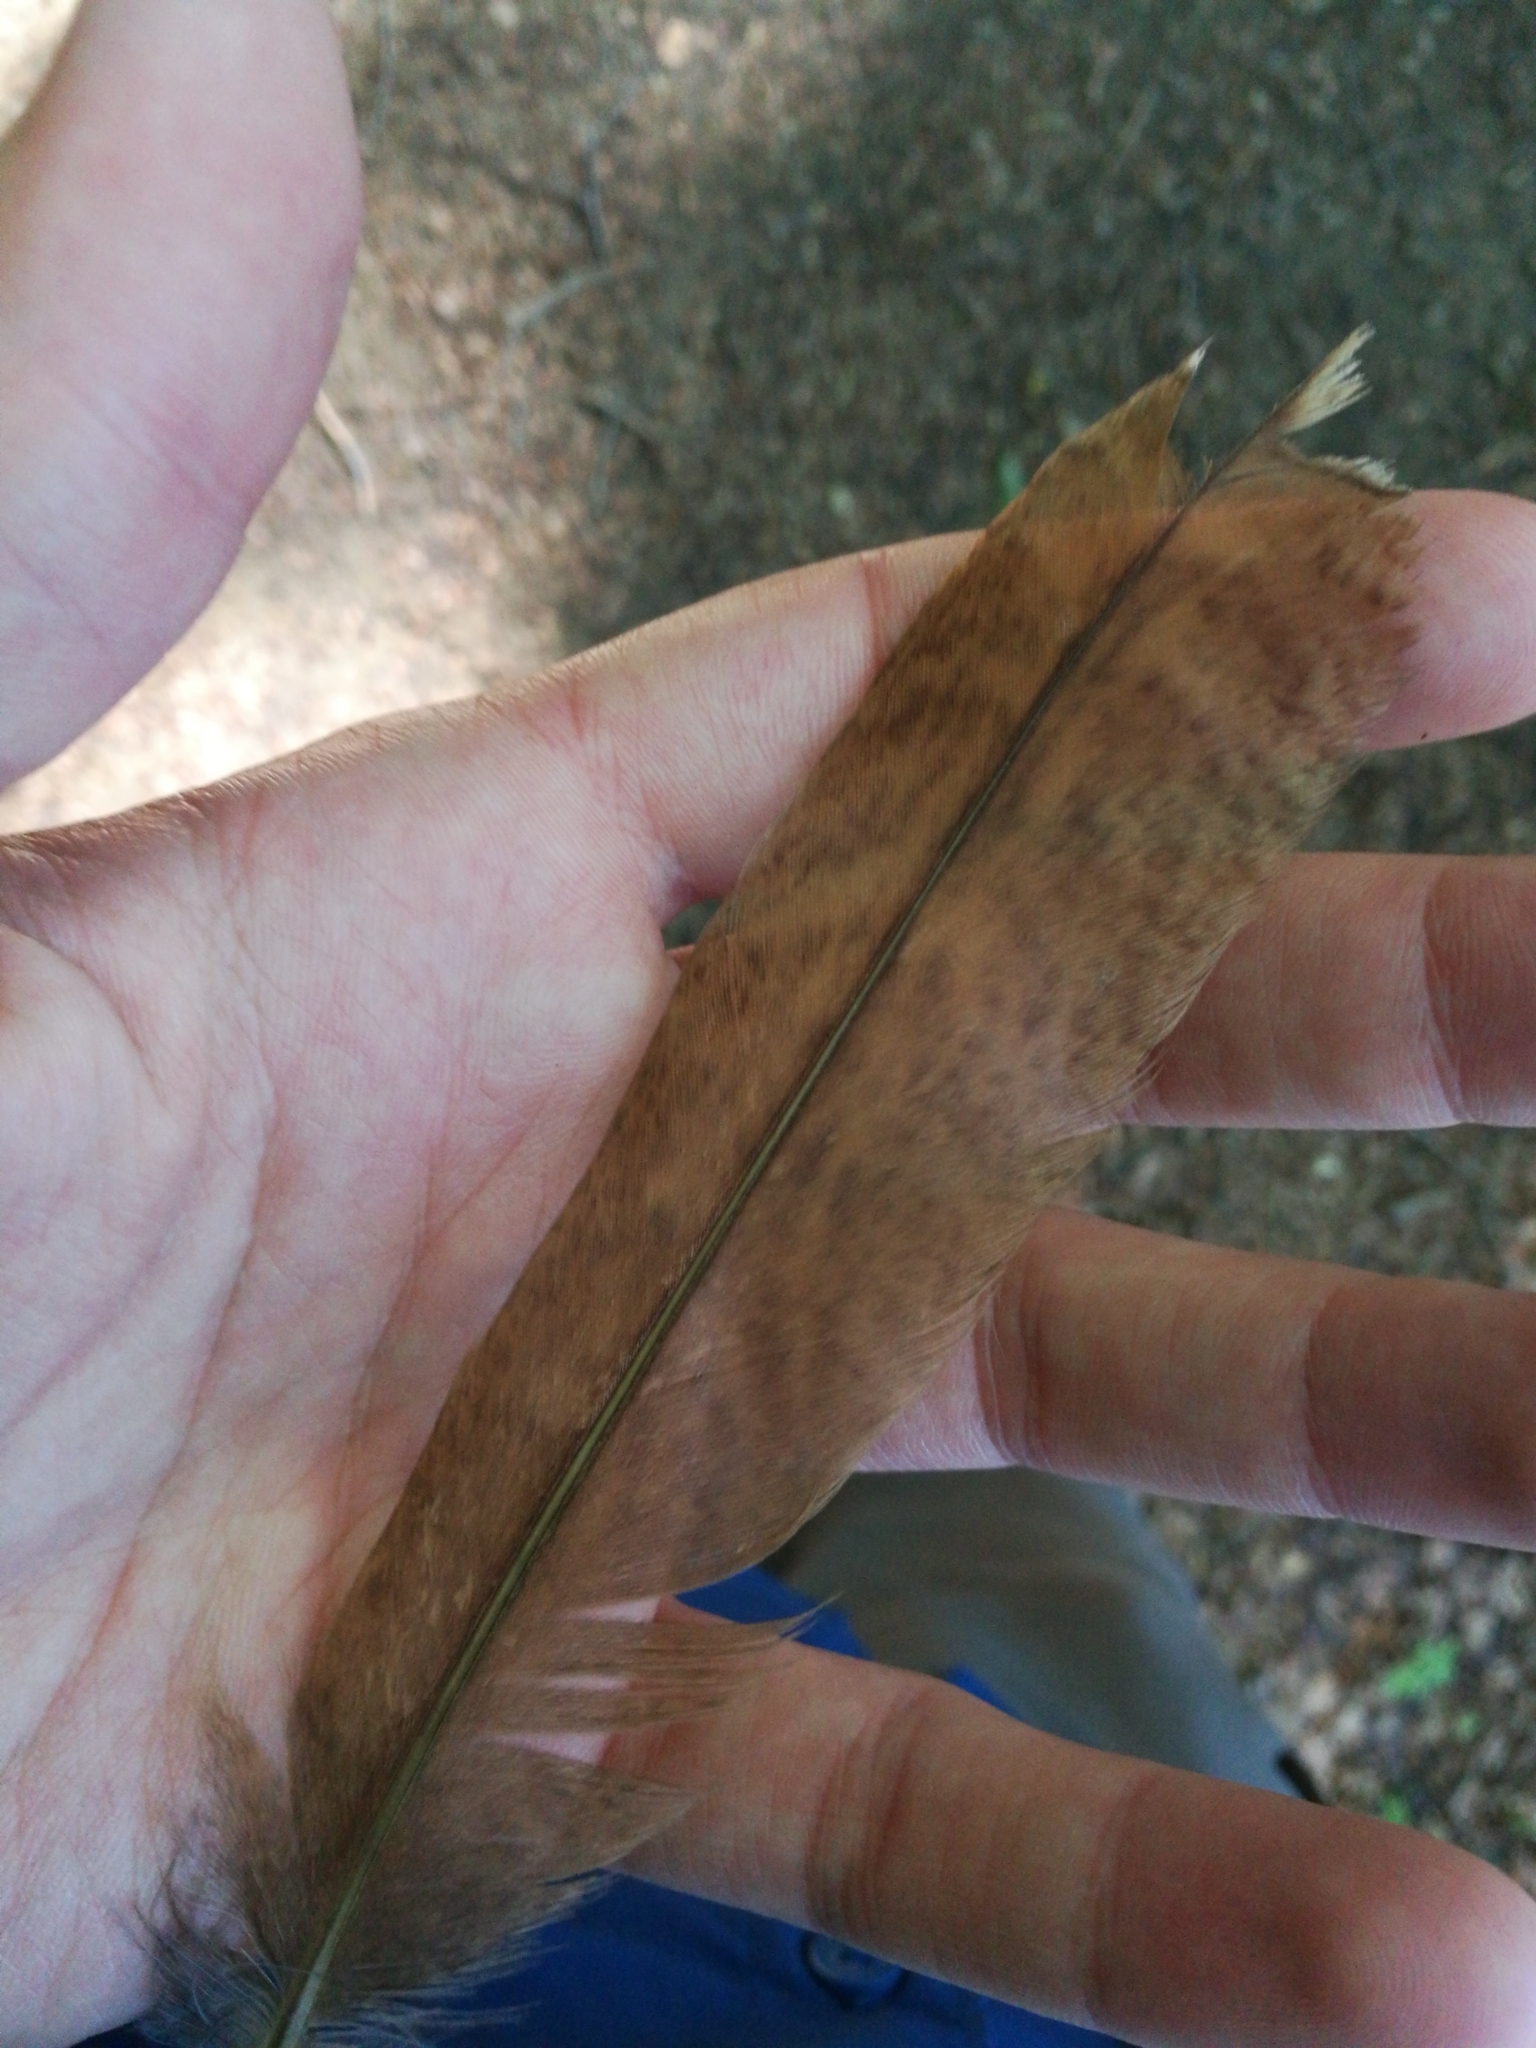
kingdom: Animalia
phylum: Chordata
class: Aves
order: Strigiformes
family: Strigidae
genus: Strix
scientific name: Strix aluco
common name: Tawny owl
